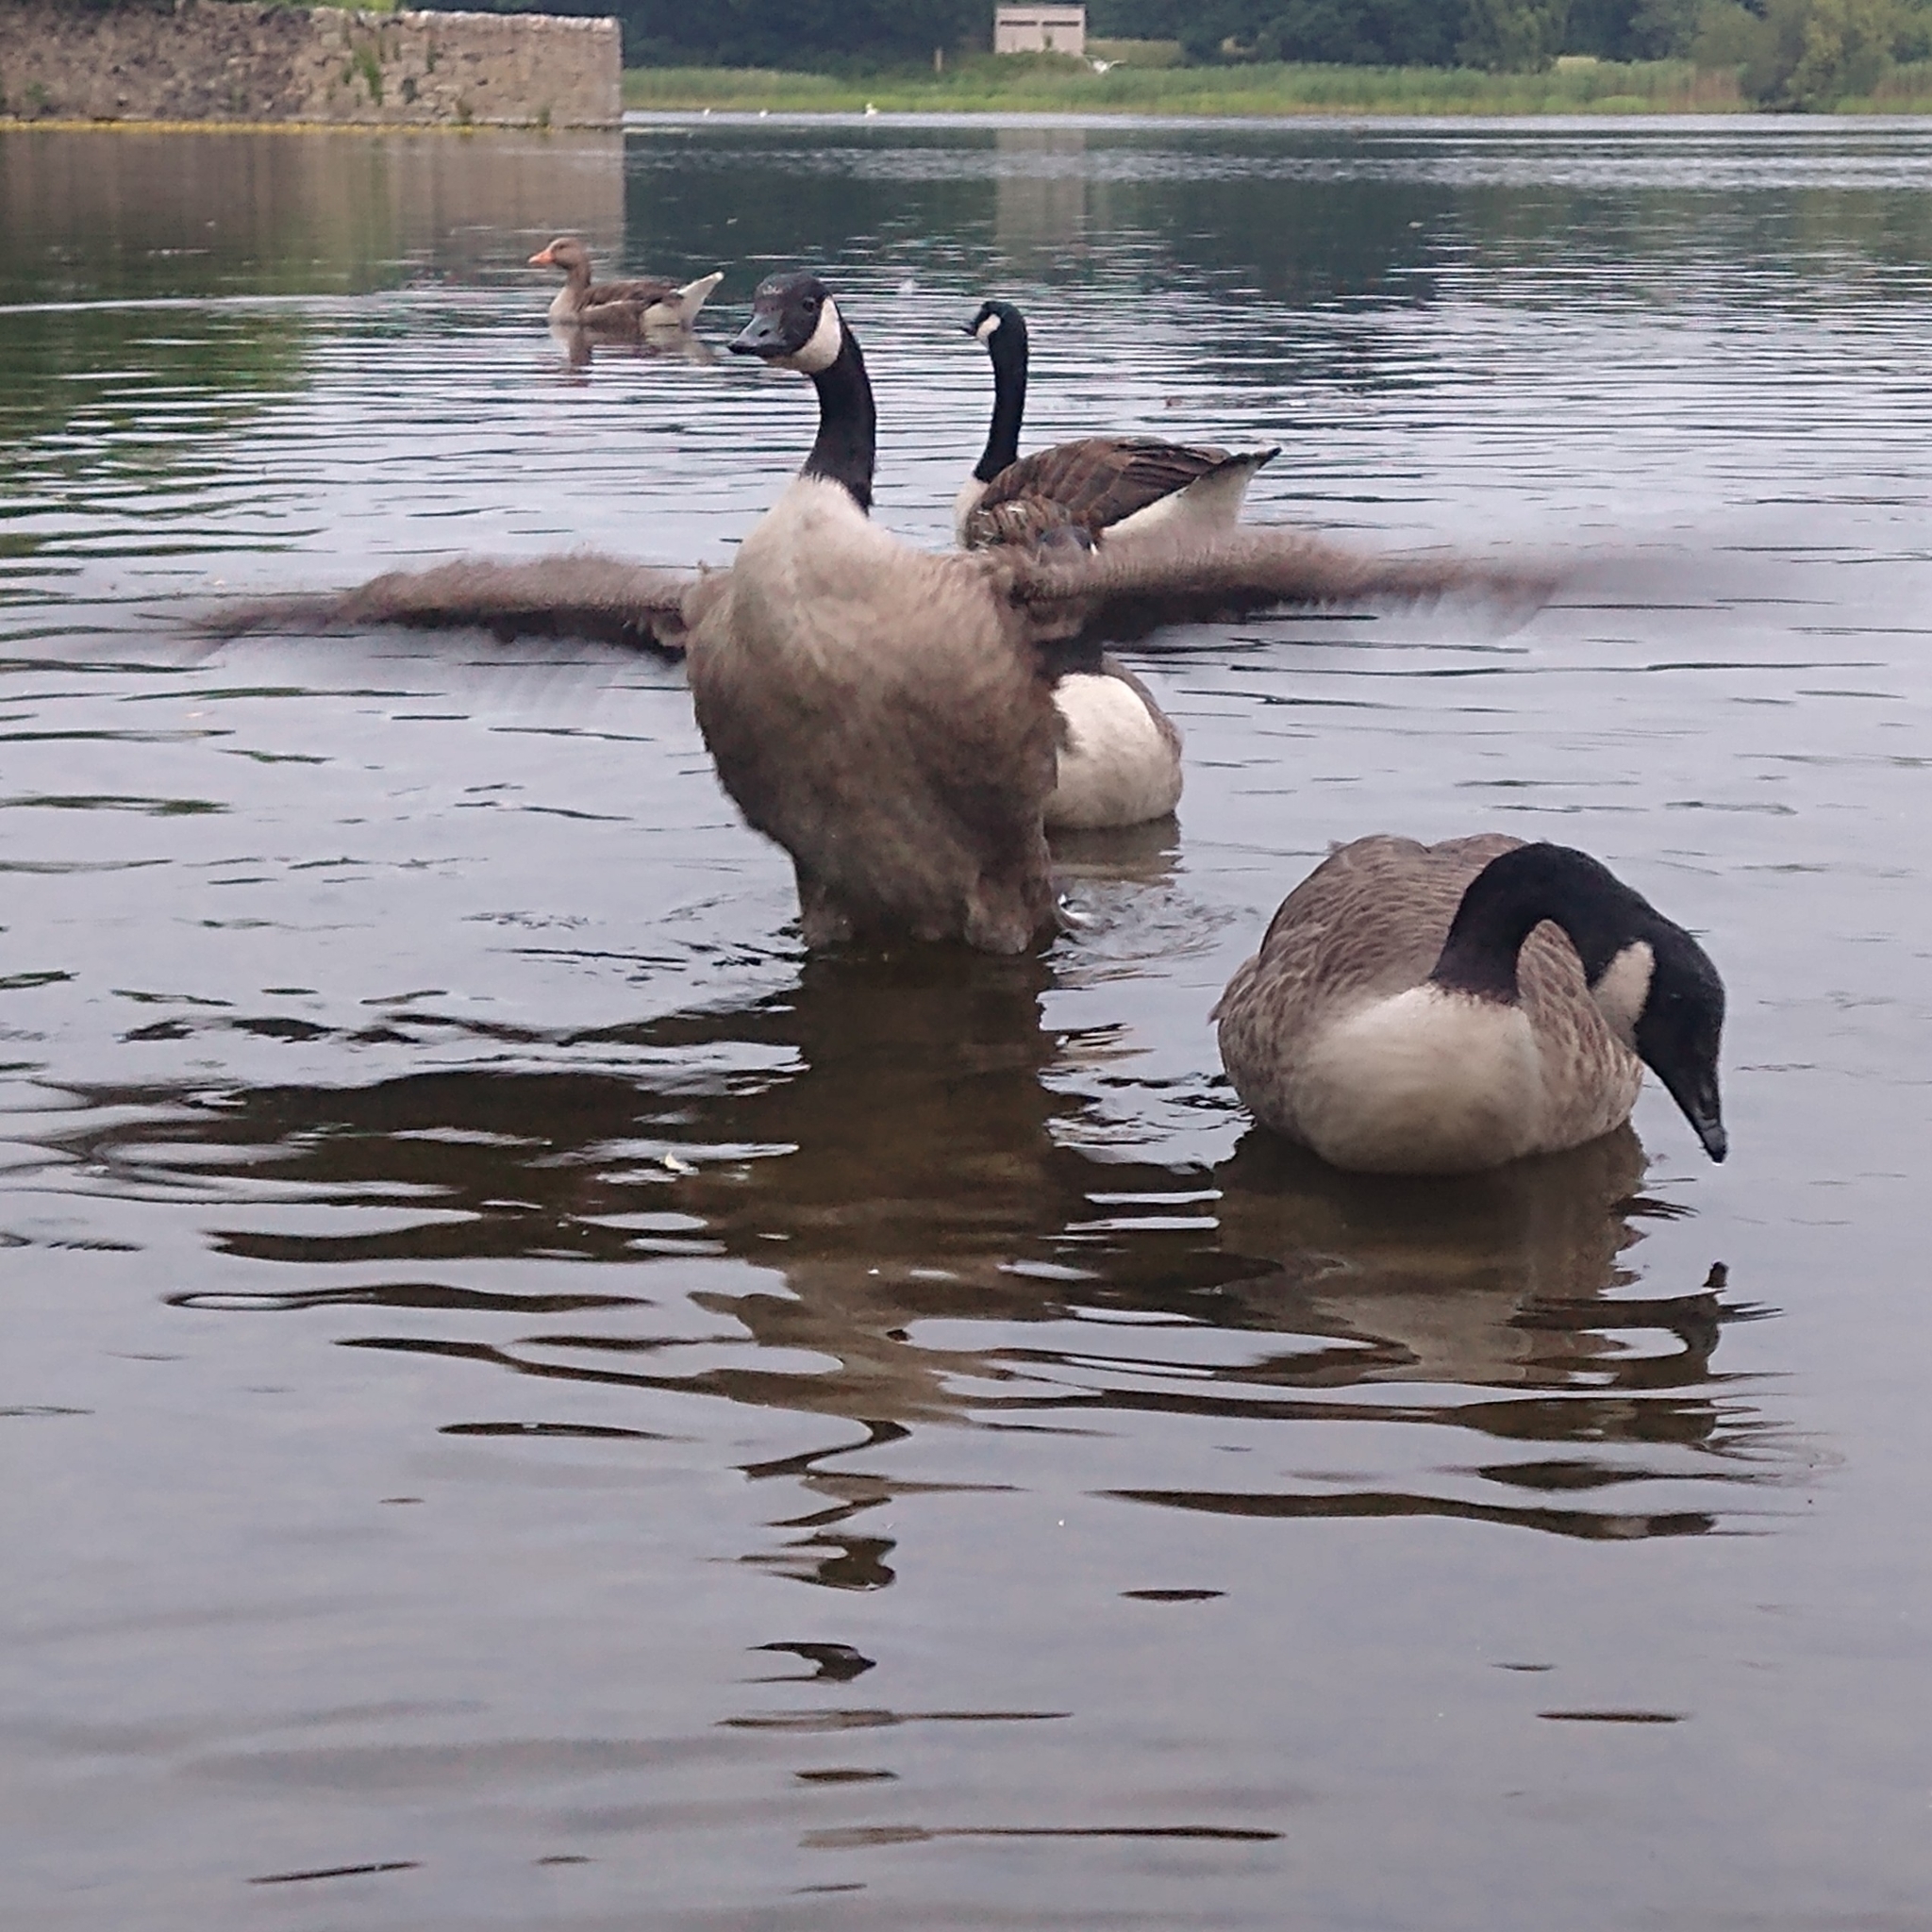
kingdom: Animalia
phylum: Chordata
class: Aves
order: Anseriformes
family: Anatidae
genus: Branta
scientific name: Branta canadensis
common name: Canada goose
